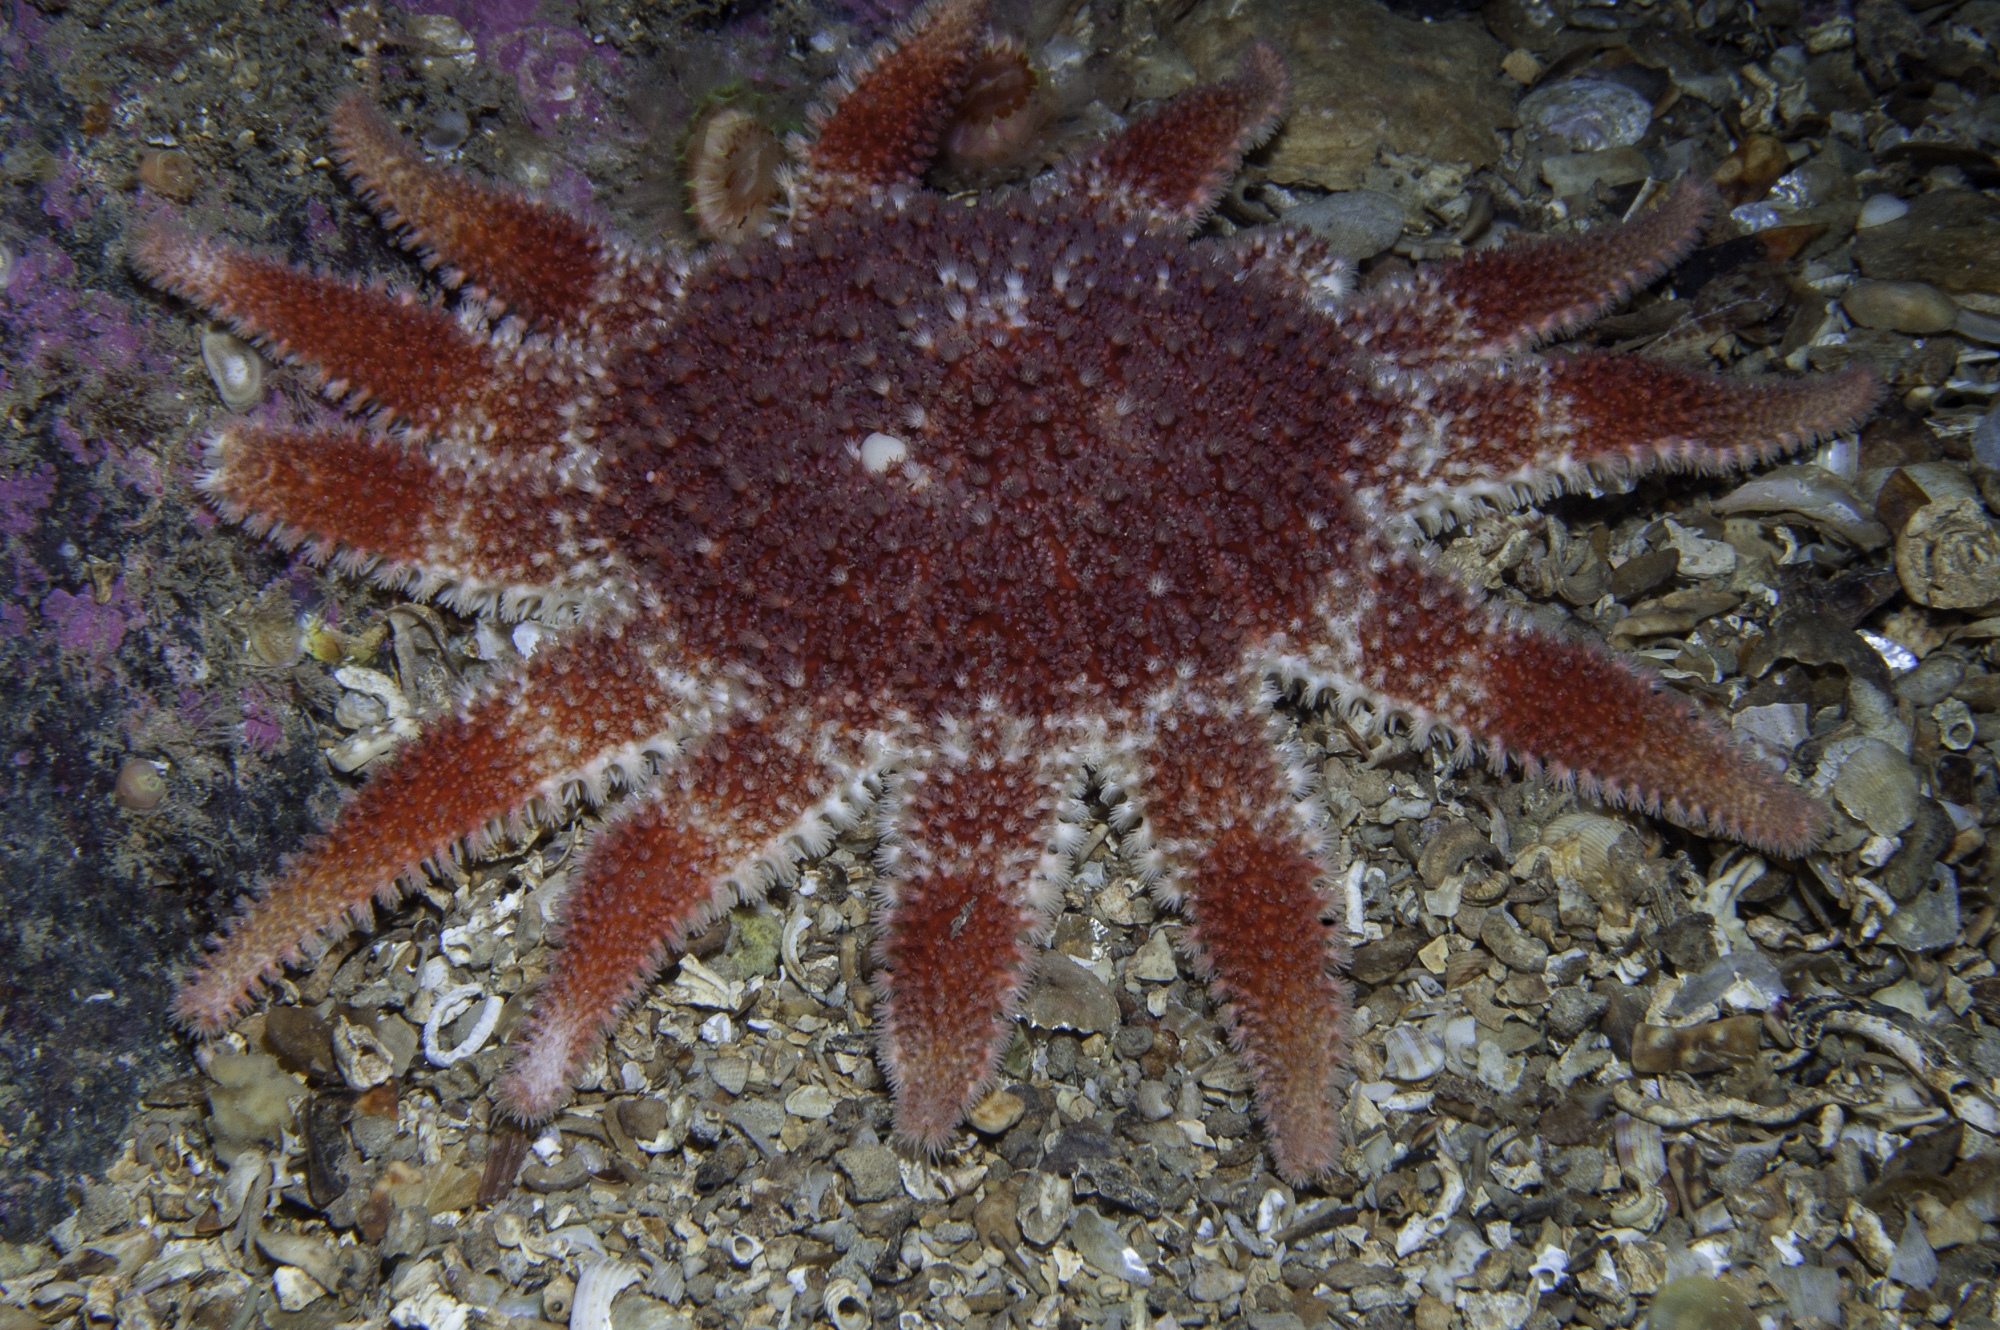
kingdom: Animalia
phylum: Echinodermata
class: Asteroidea
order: Valvatida
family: Solasteridae
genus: Crossaster
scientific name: Crossaster papposus
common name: Common sun star
